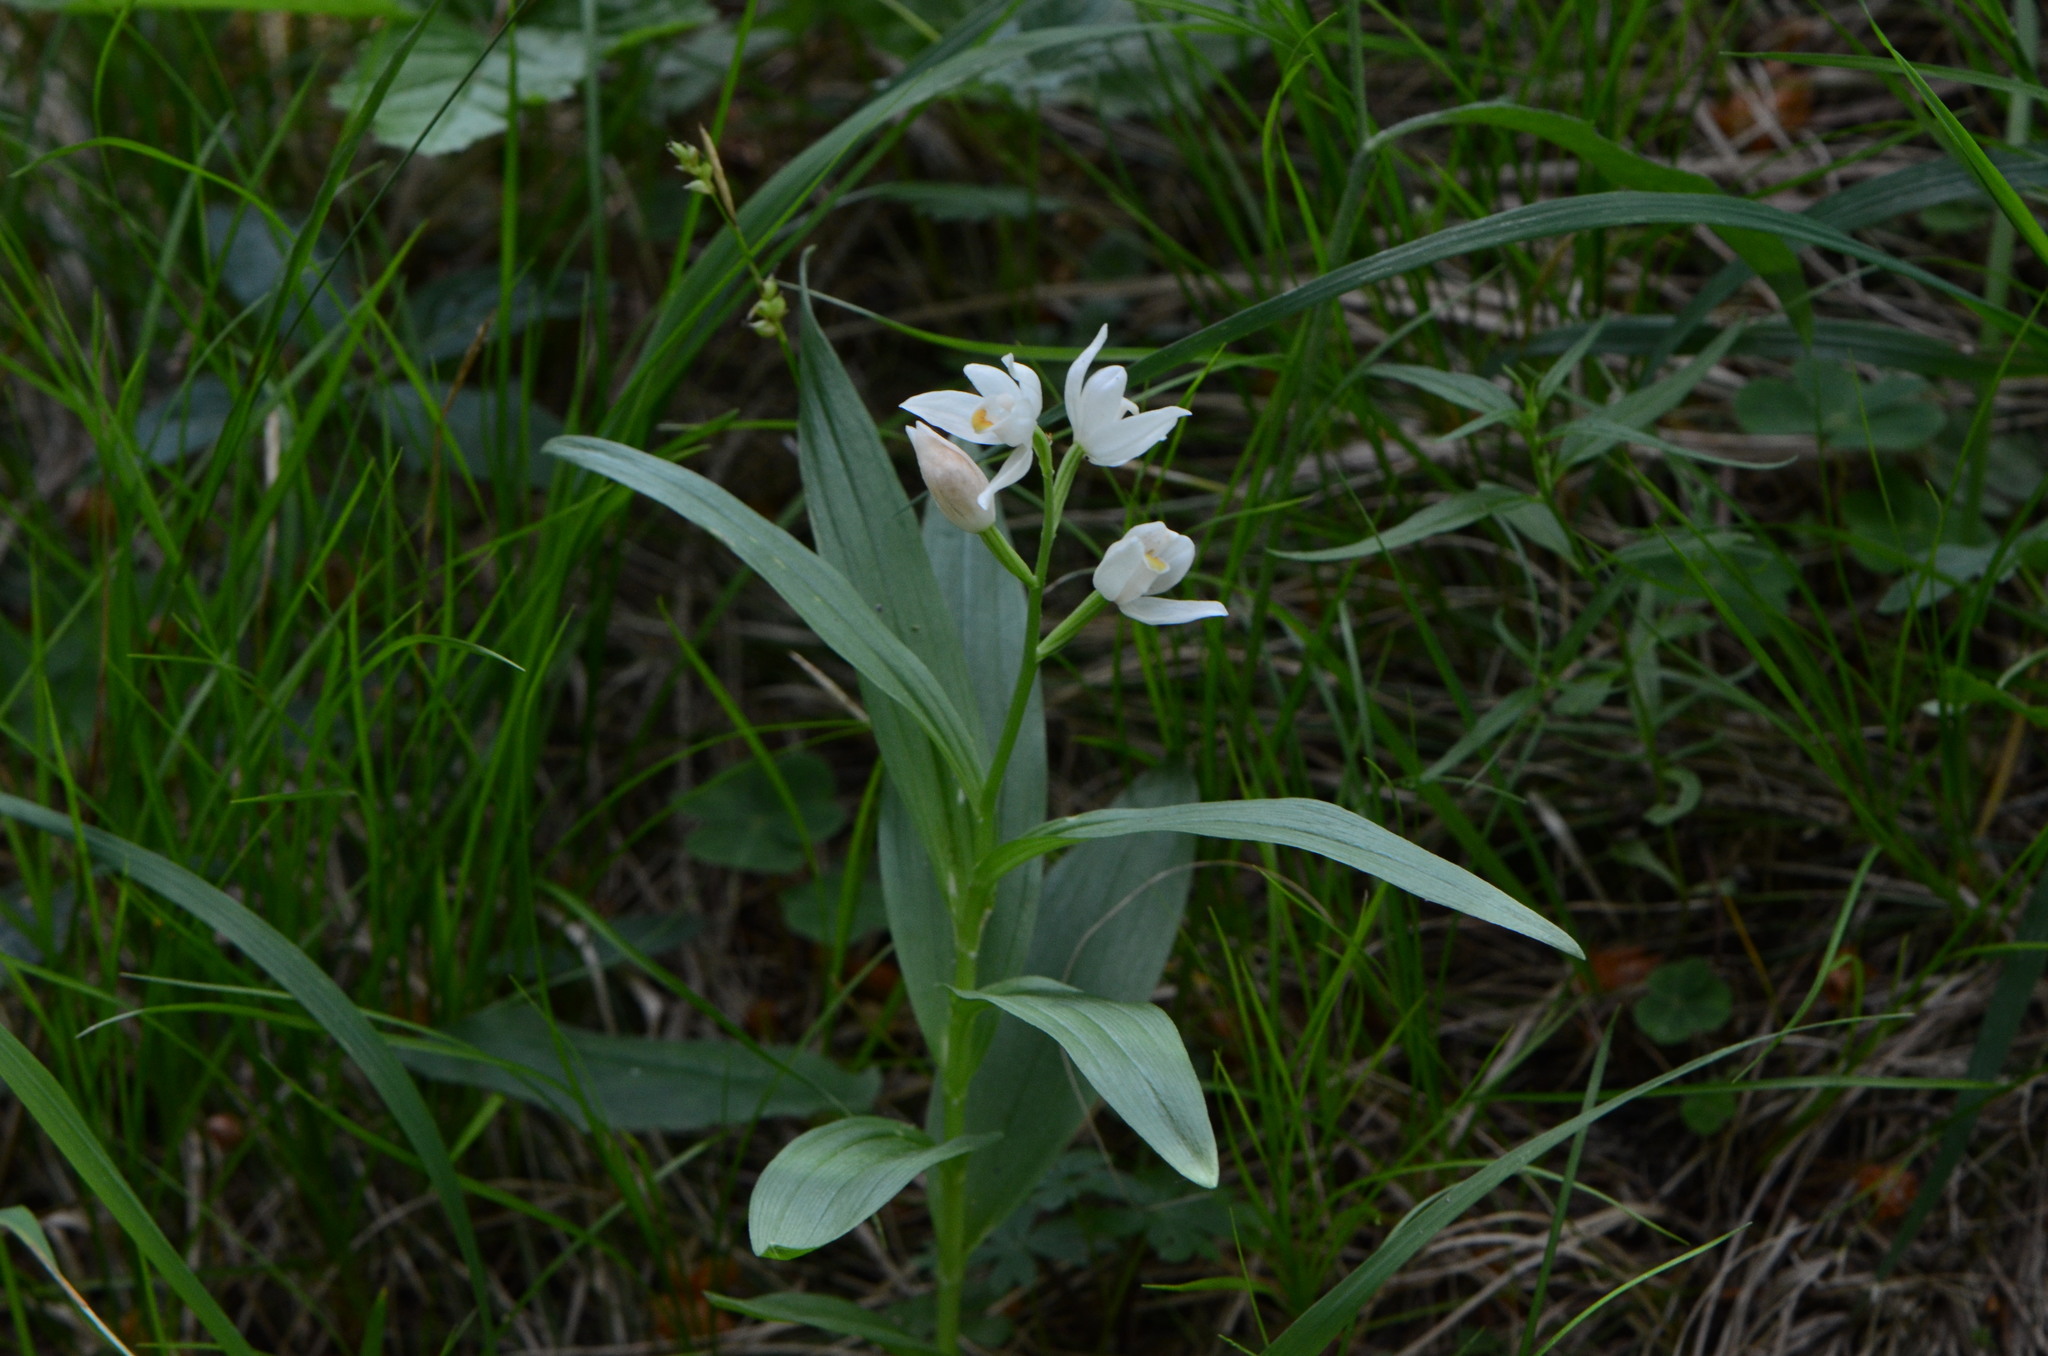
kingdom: Plantae
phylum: Tracheophyta
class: Liliopsida
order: Asparagales
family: Orchidaceae
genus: Cephalanthera
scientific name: Cephalanthera longifolia
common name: Narrow-leaved helleborine
